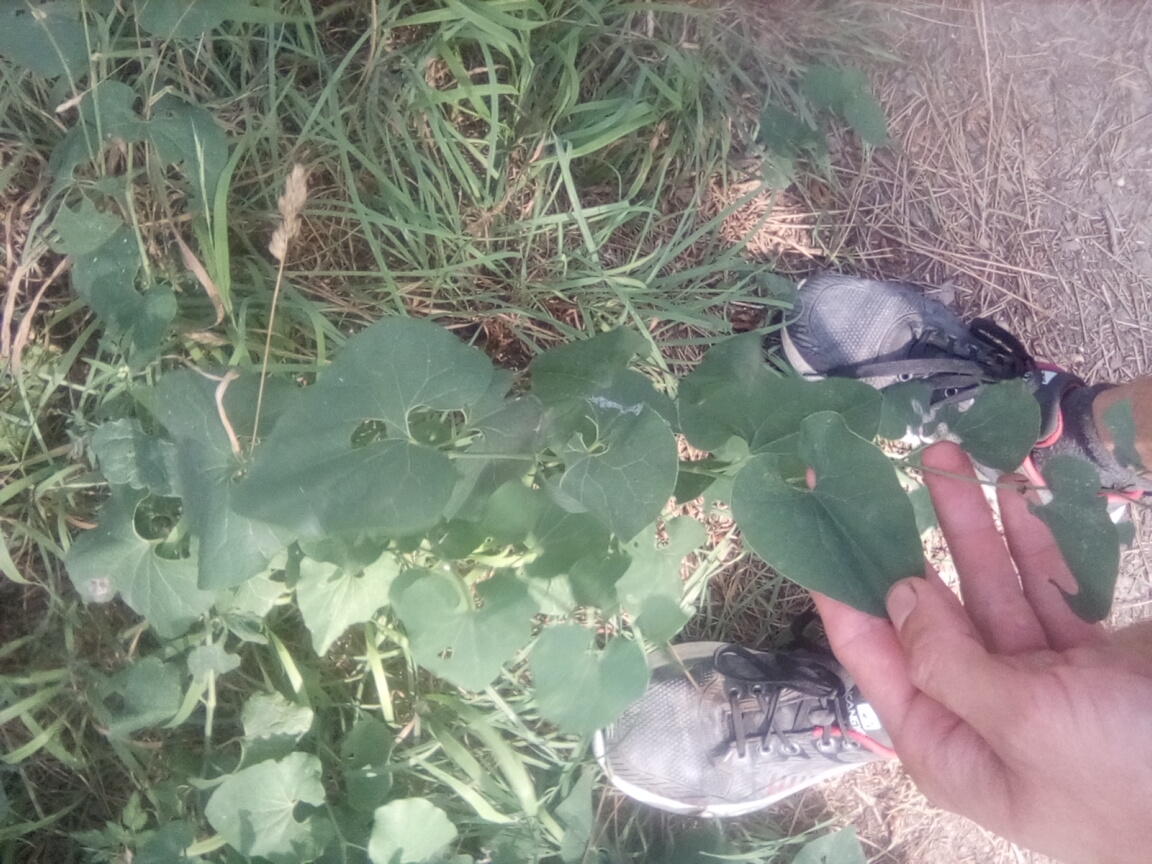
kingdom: Plantae
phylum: Tracheophyta
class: Magnoliopsida
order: Piperales
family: Aristolochiaceae
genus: Aristolochia
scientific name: Aristolochia clematitis
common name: Birthwort
